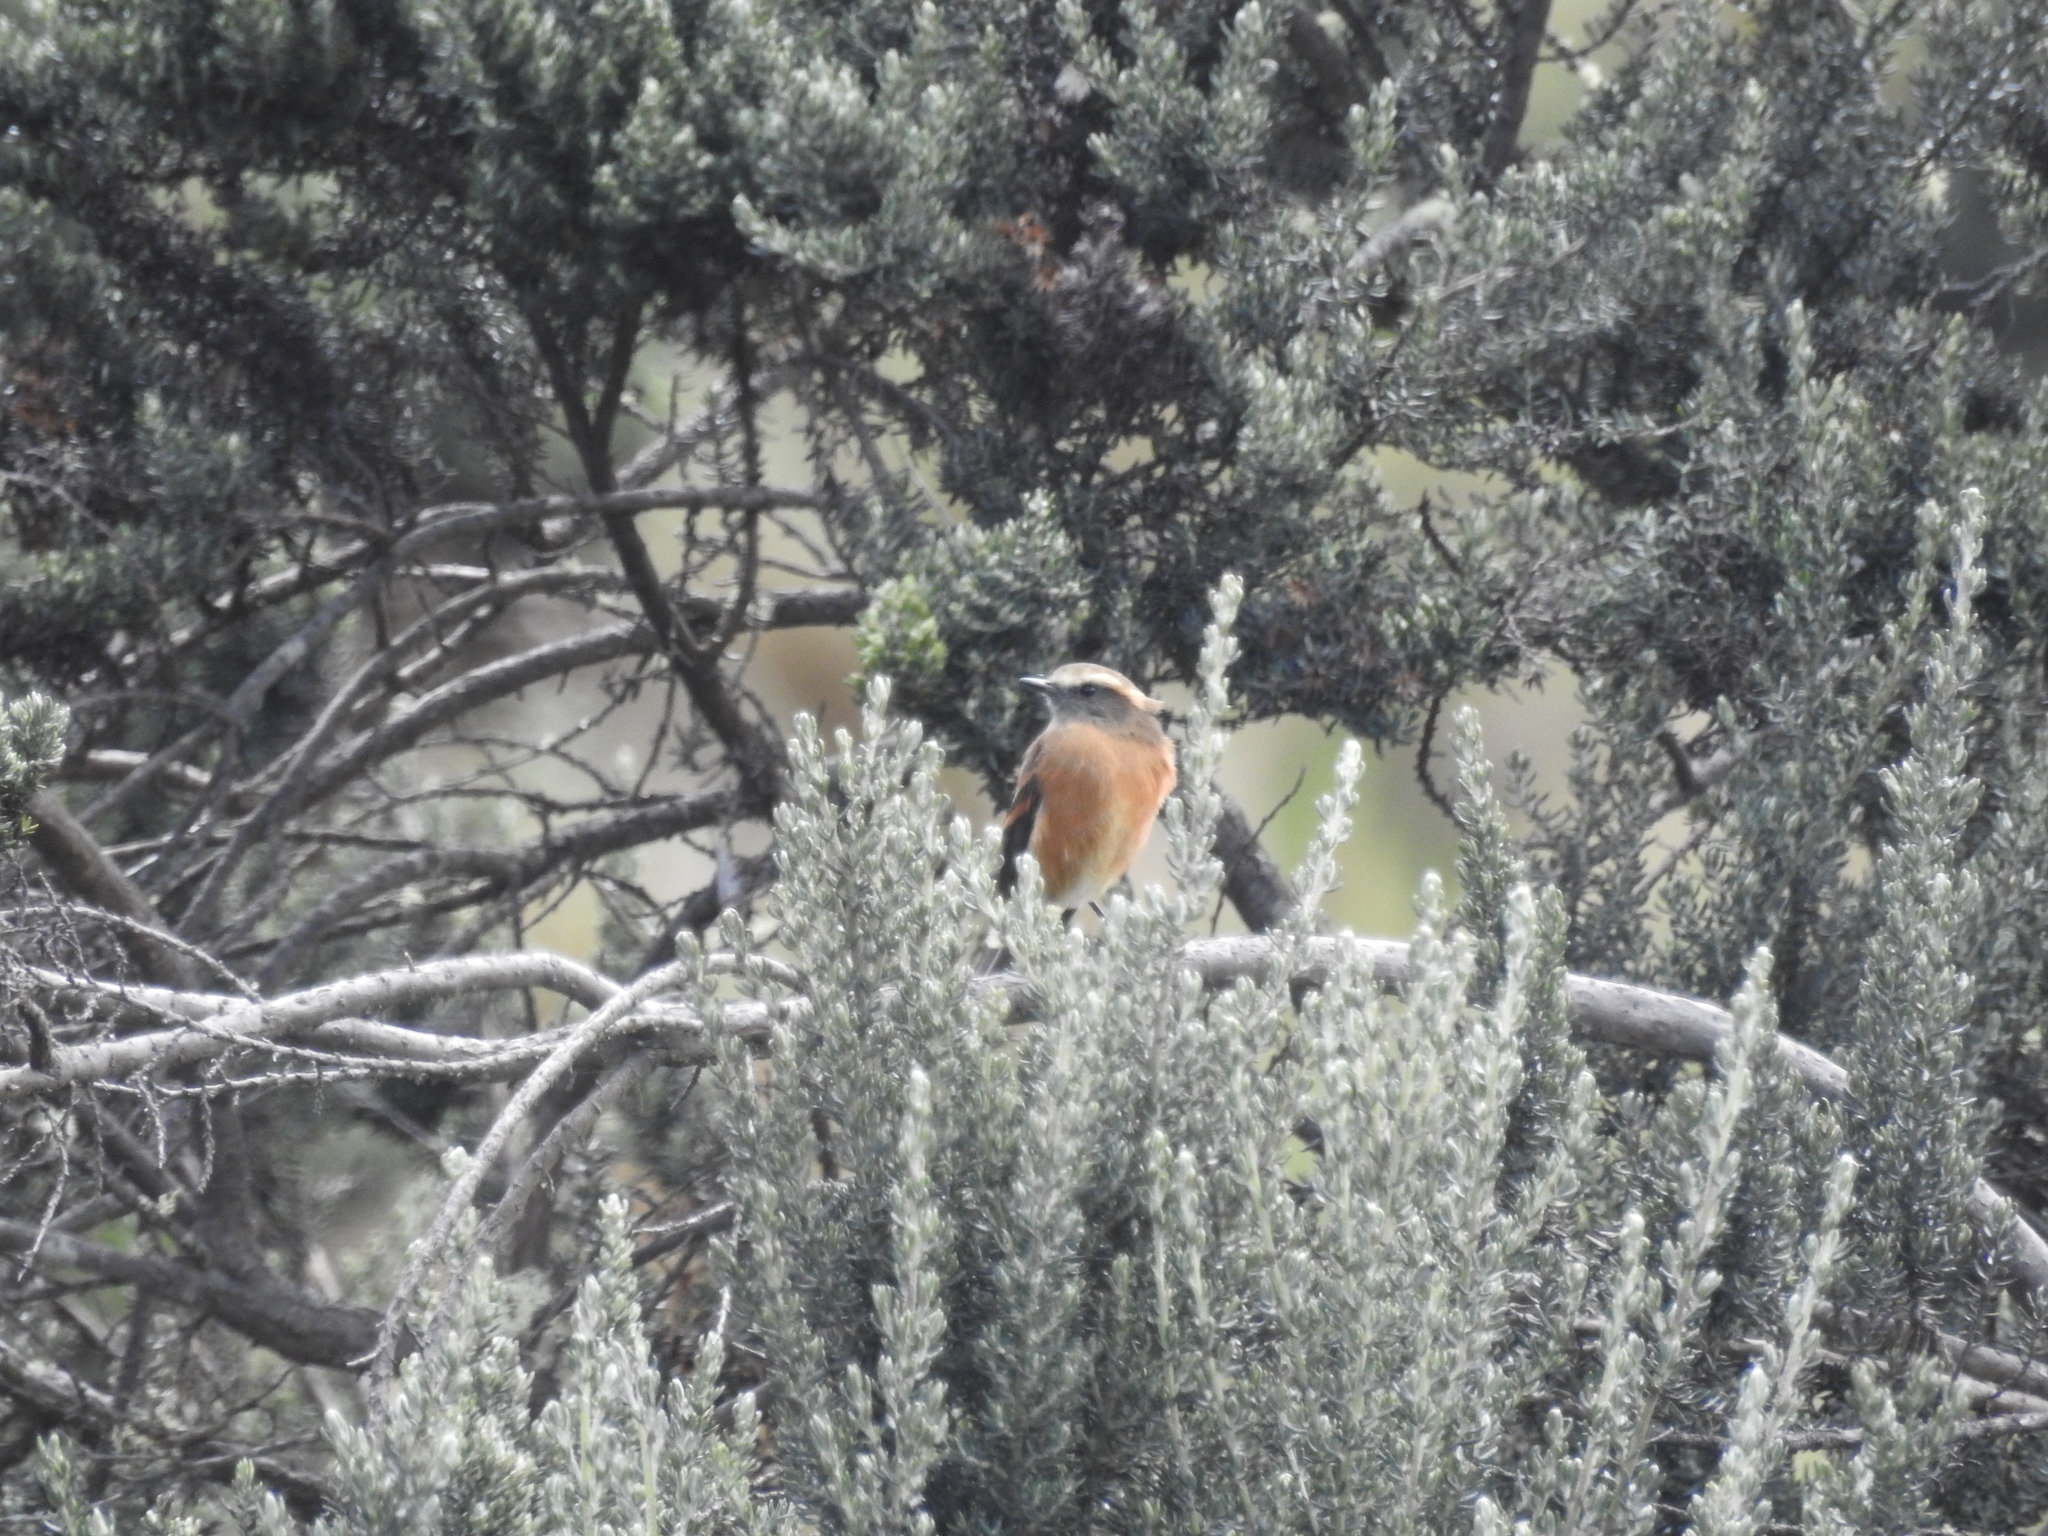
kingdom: Animalia
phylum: Chordata
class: Aves
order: Passeriformes
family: Tyrannidae
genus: Ochthoeca
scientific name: Ochthoeca fumicolor
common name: Brown-backed chat-tyrant
